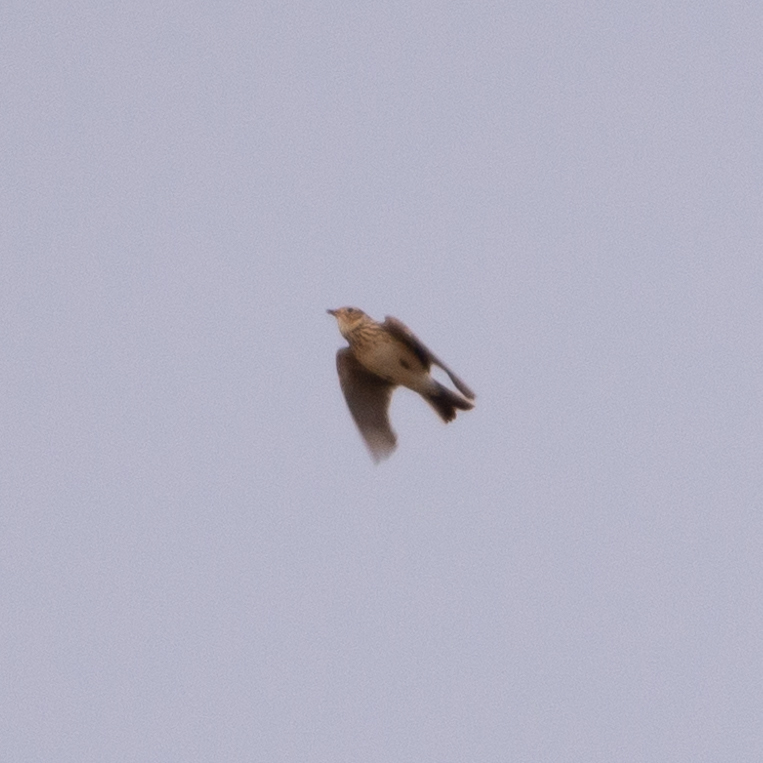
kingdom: Animalia
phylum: Chordata
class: Aves
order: Passeriformes
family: Alaudidae
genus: Alauda
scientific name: Alauda arvensis
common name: Eurasian skylark
